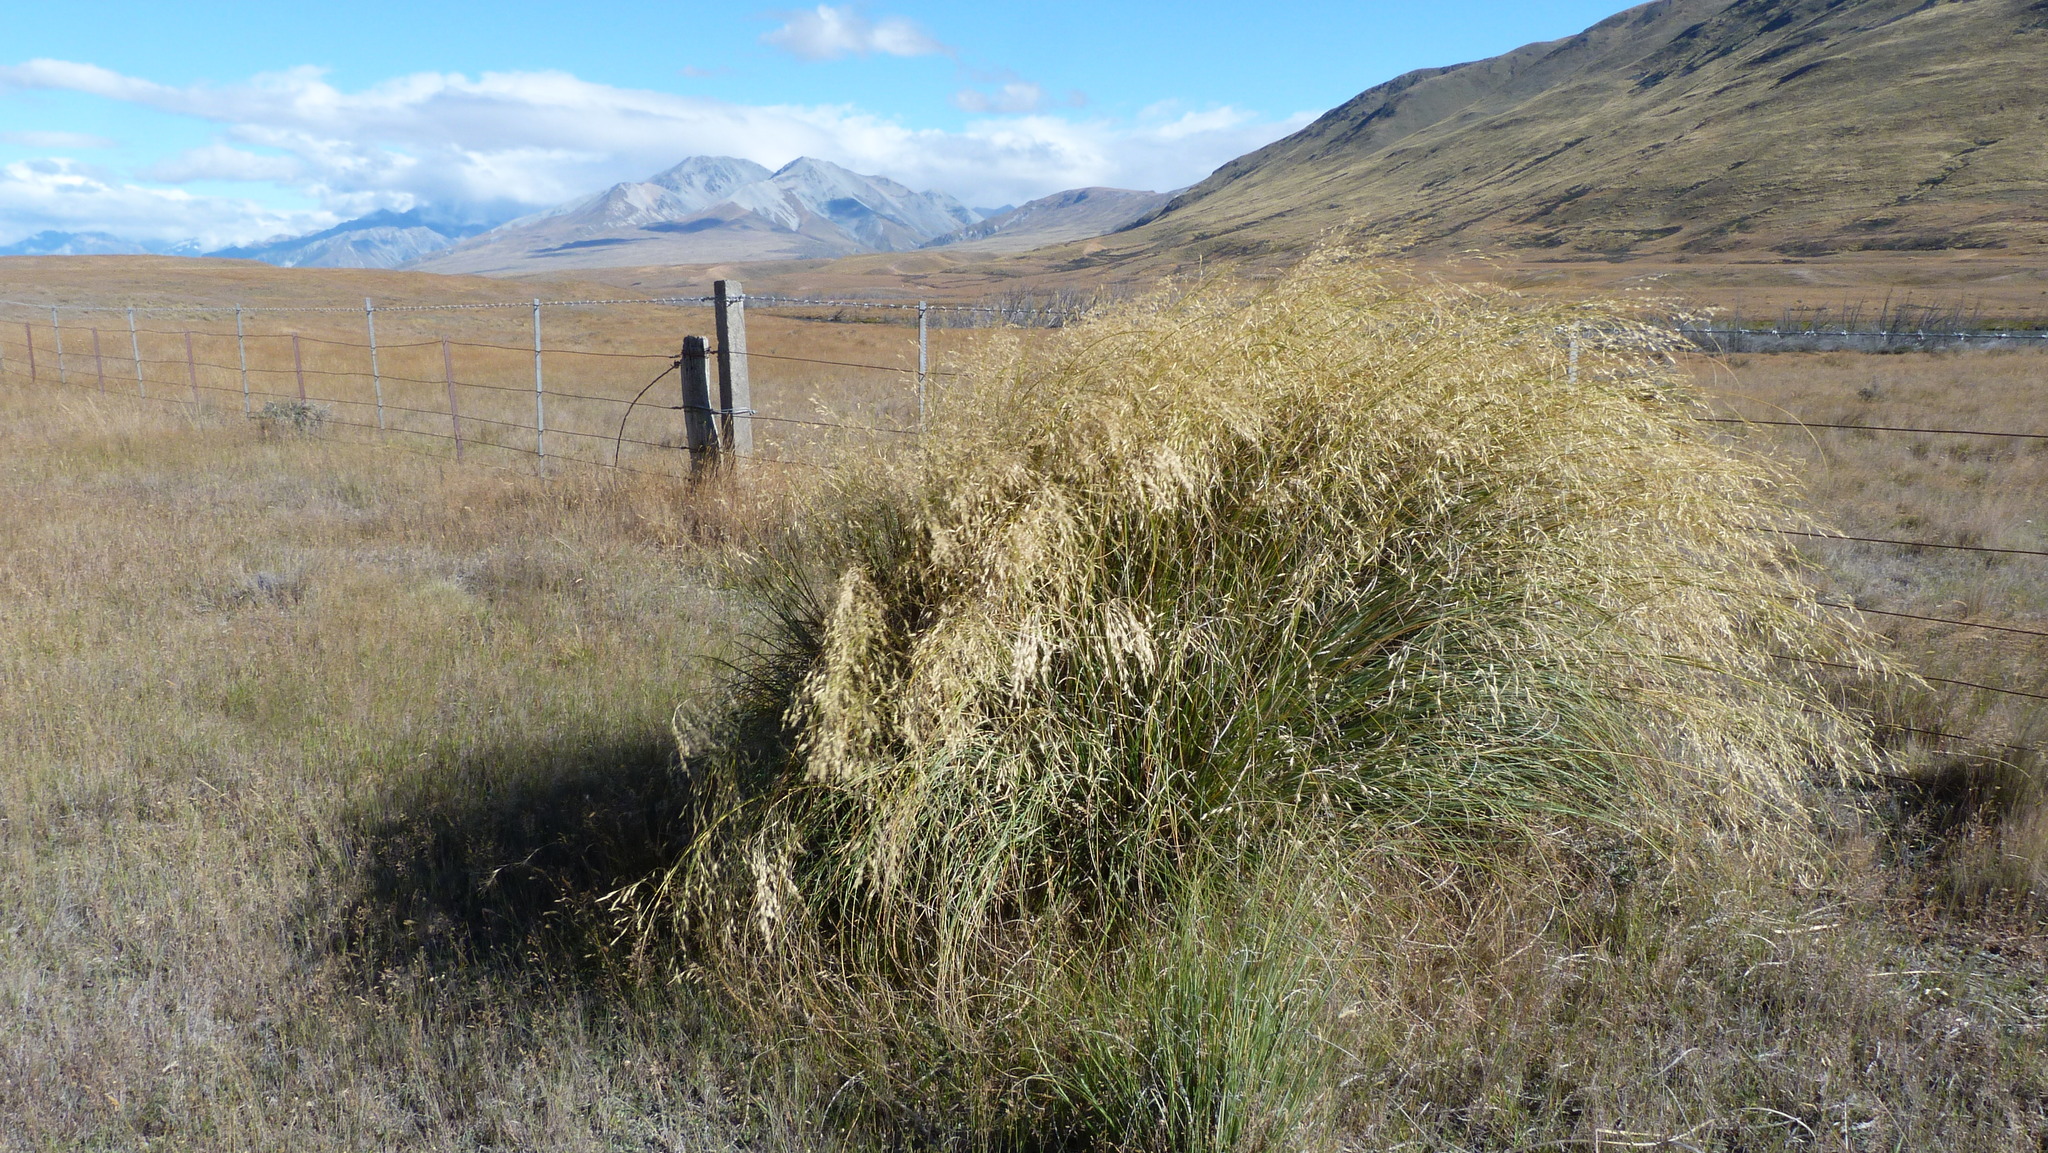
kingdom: Plantae
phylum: Tracheophyta
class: Liliopsida
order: Poales
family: Poaceae
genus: Chionochloa
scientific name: Chionochloa rigida
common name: Narrow leaved snow tussock
